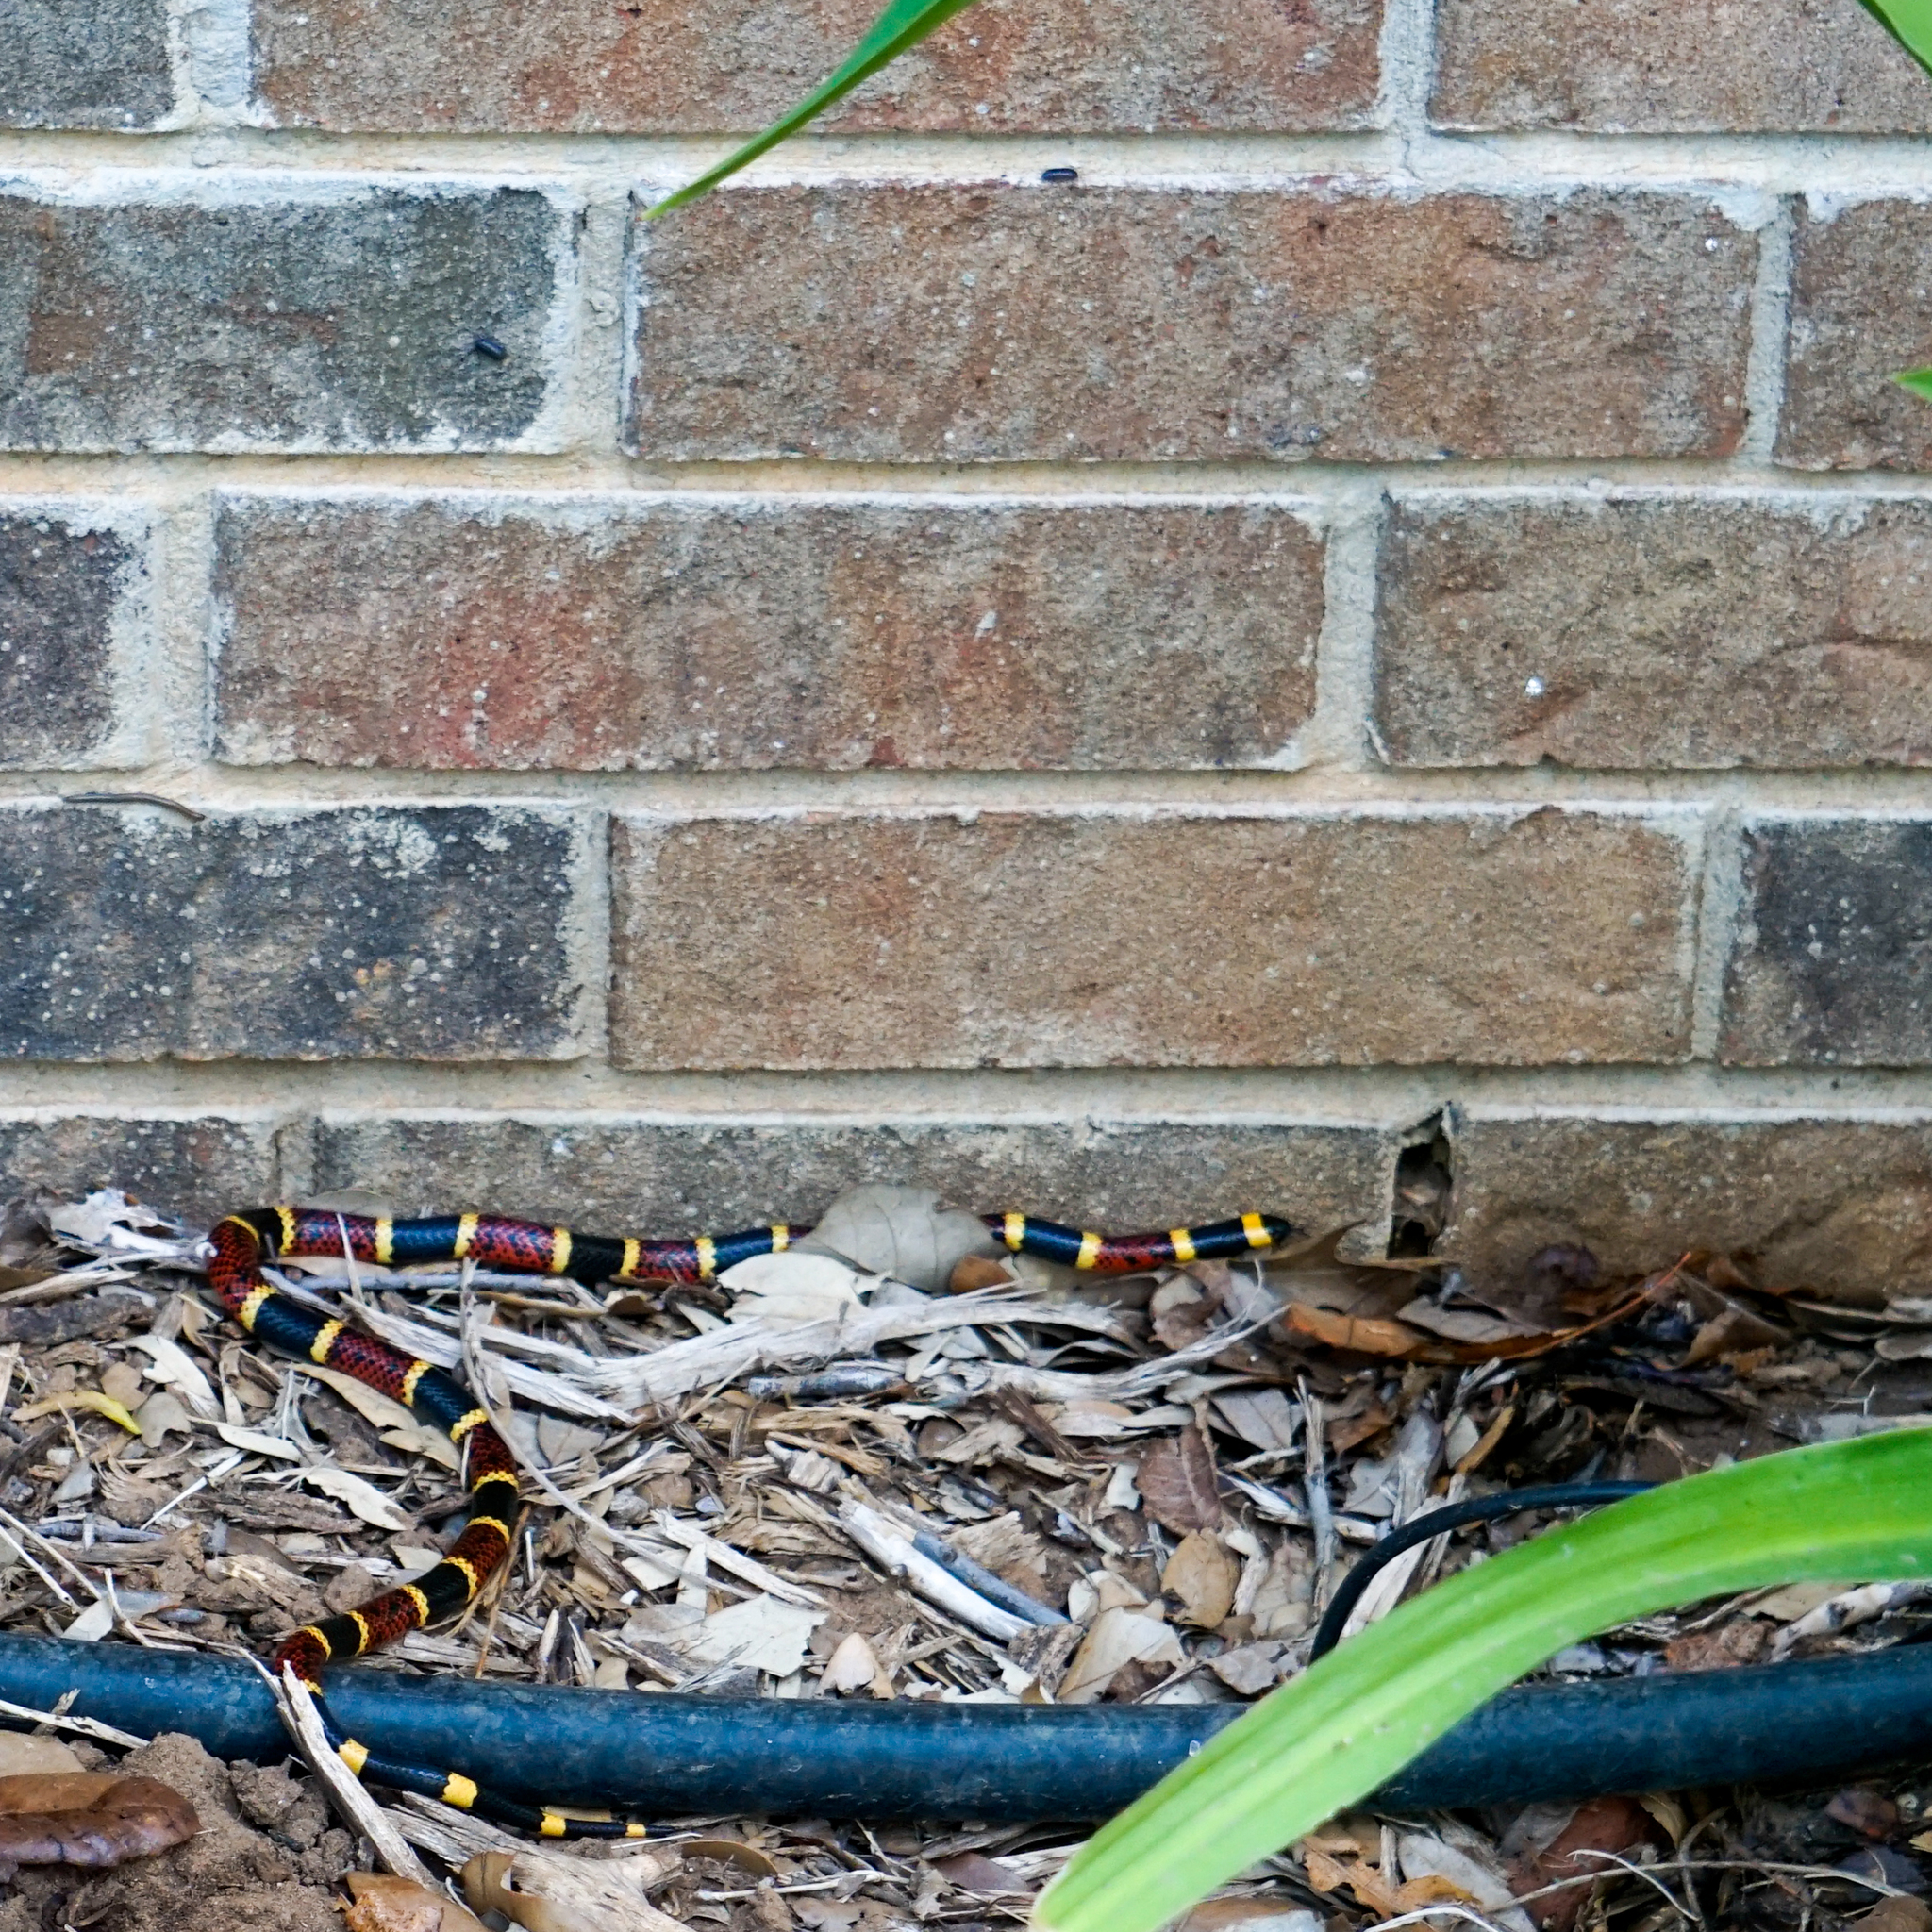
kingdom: Animalia
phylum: Chordata
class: Squamata
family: Elapidae
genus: Micrurus
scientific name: Micrurus tener
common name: Texas coral snake
